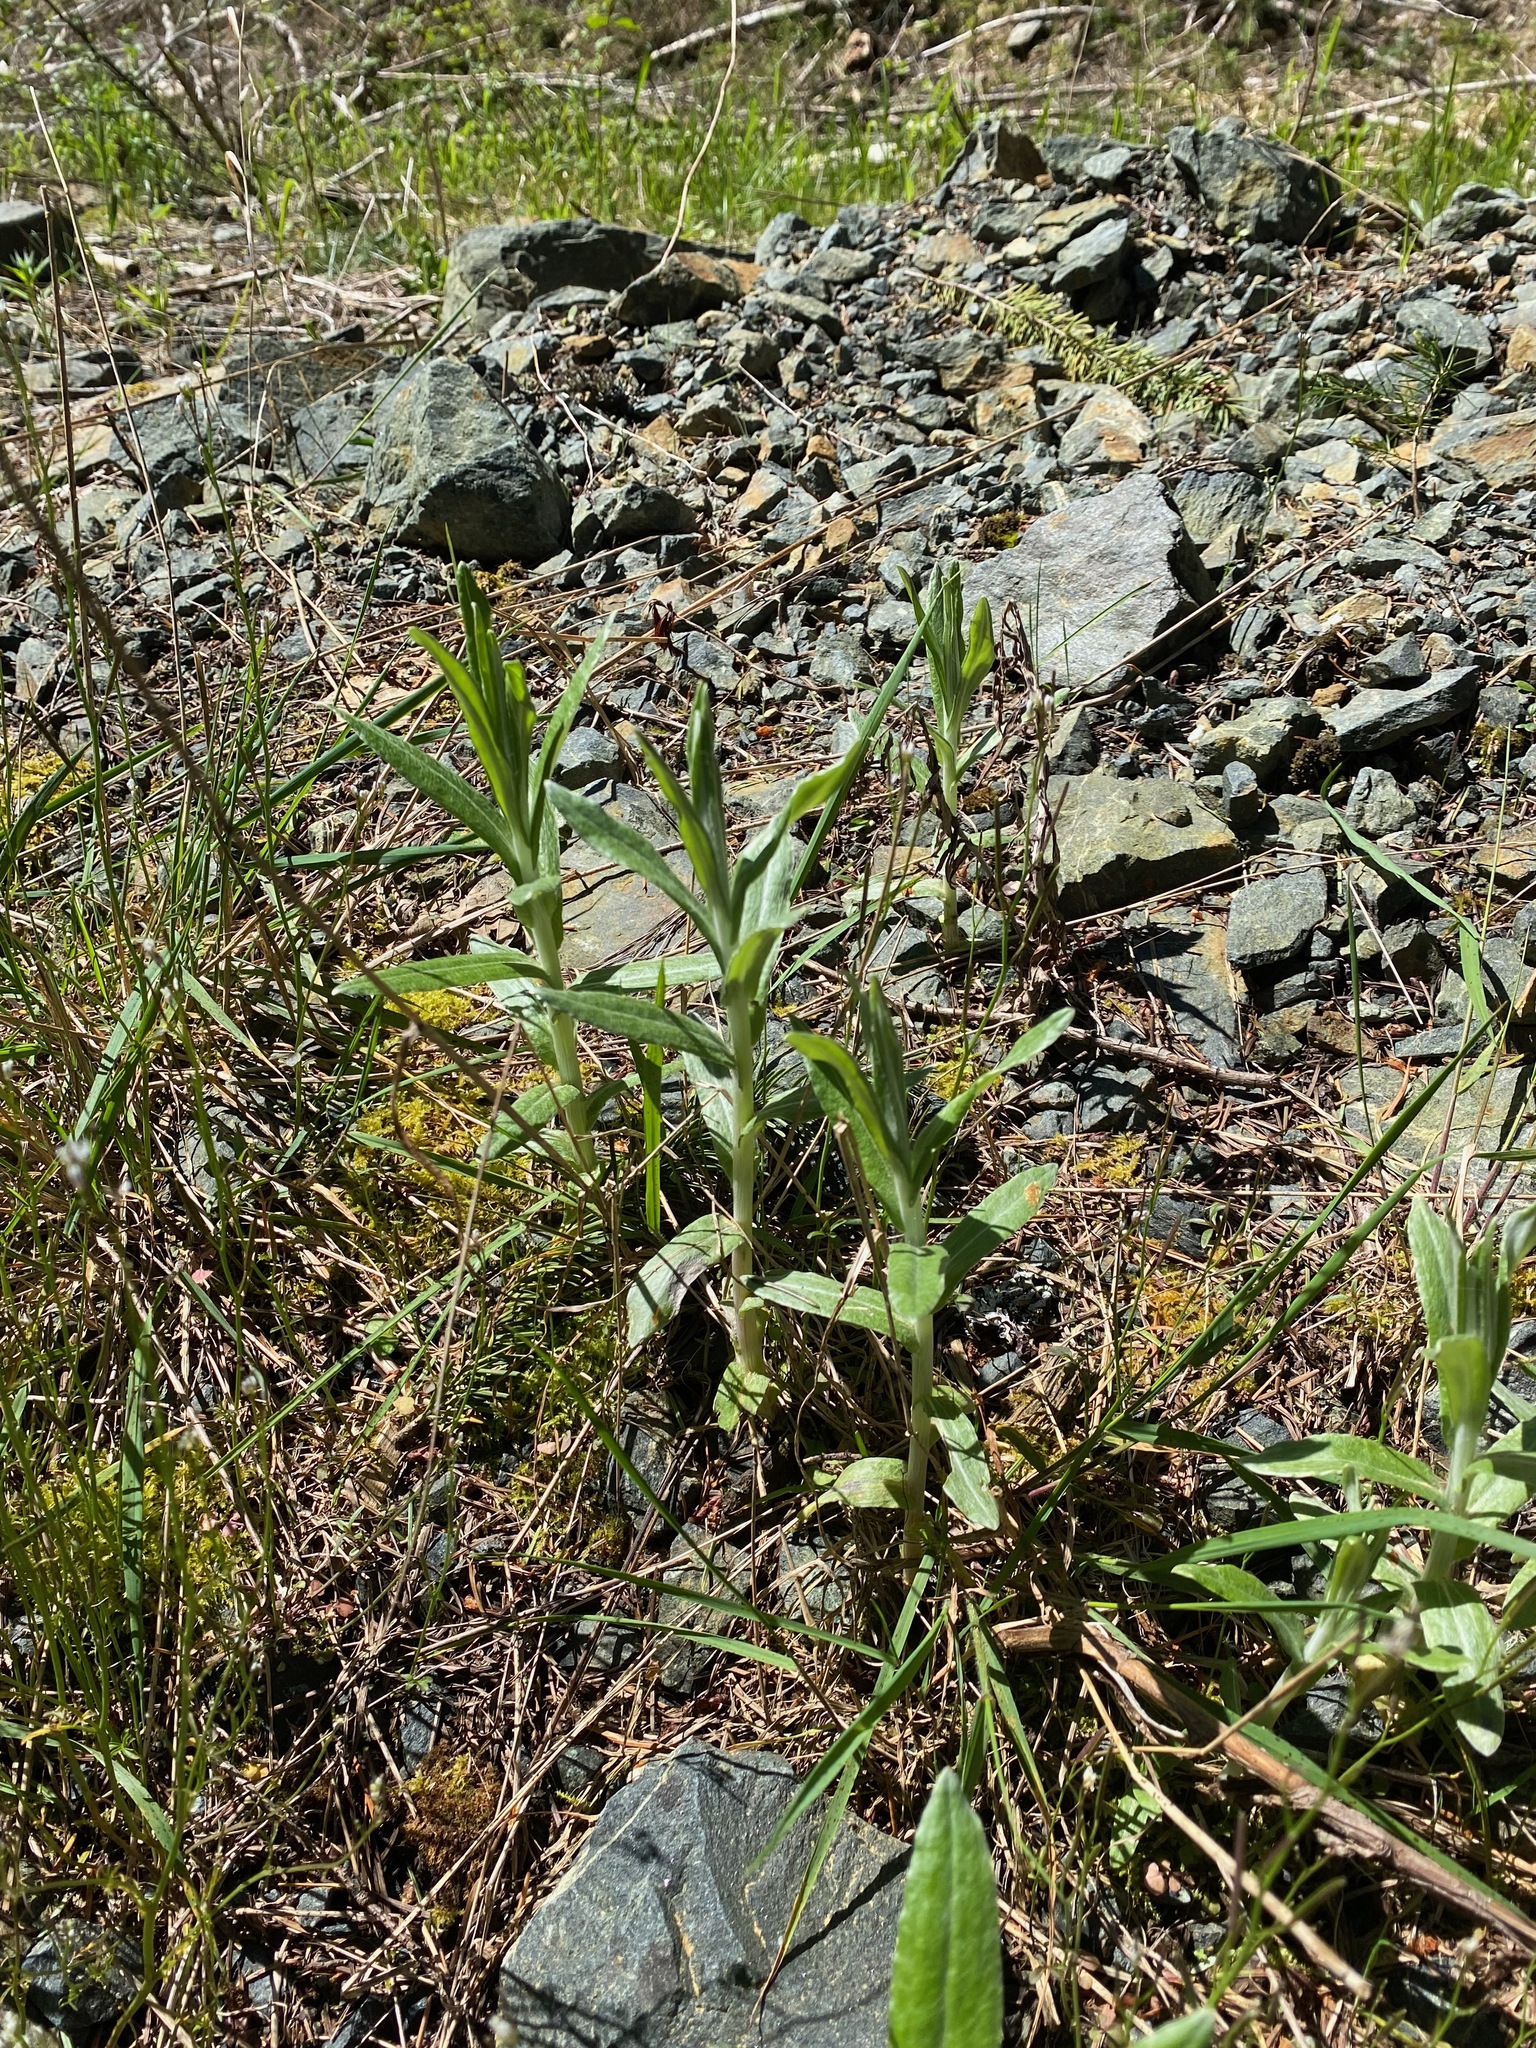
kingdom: Plantae
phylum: Tracheophyta
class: Magnoliopsida
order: Asterales
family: Asteraceae
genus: Anaphalis
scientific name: Anaphalis margaritacea
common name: Pearly everlasting
